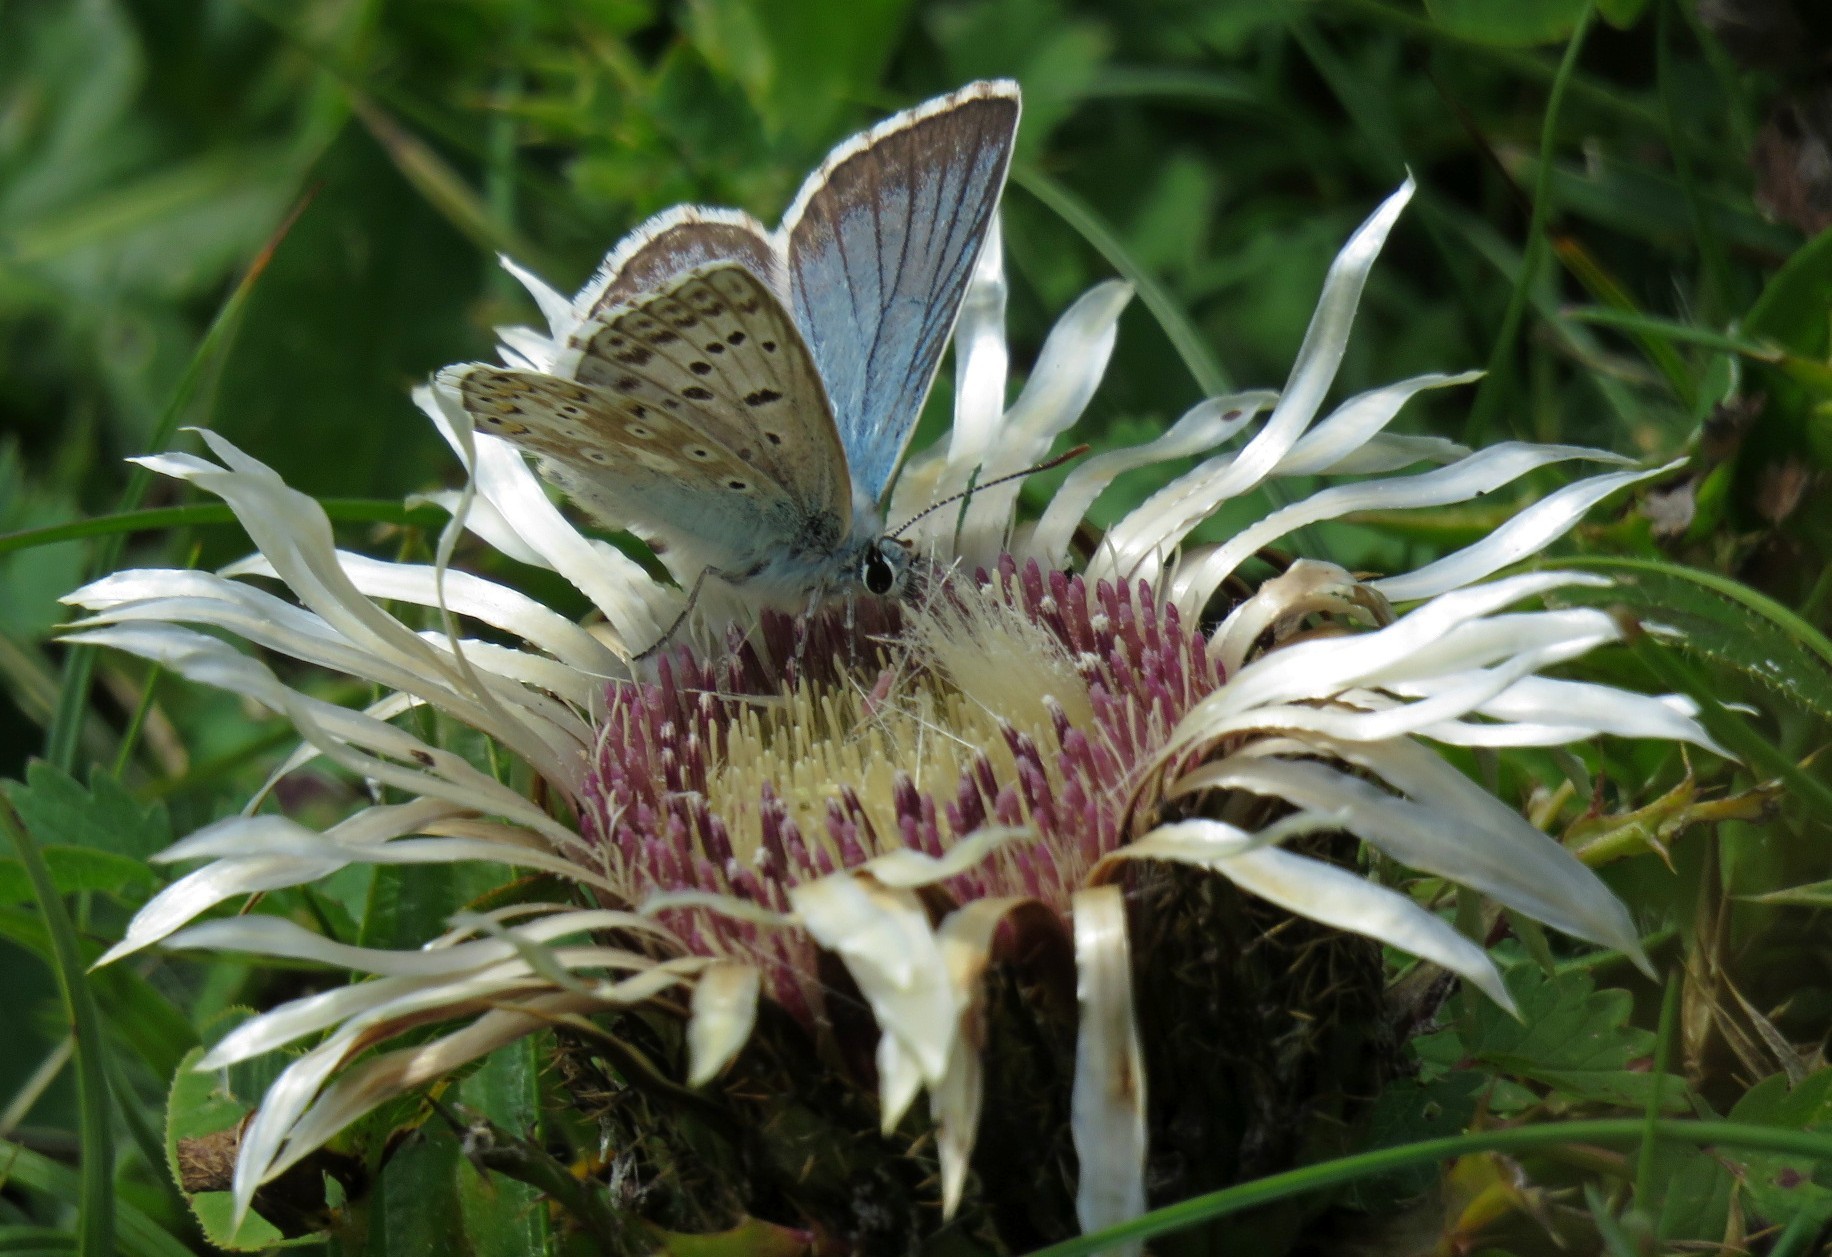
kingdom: Animalia
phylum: Arthropoda
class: Insecta
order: Lepidoptera
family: Lycaenidae
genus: Lysandra
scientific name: Lysandra coridon
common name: Chalkhill blue
